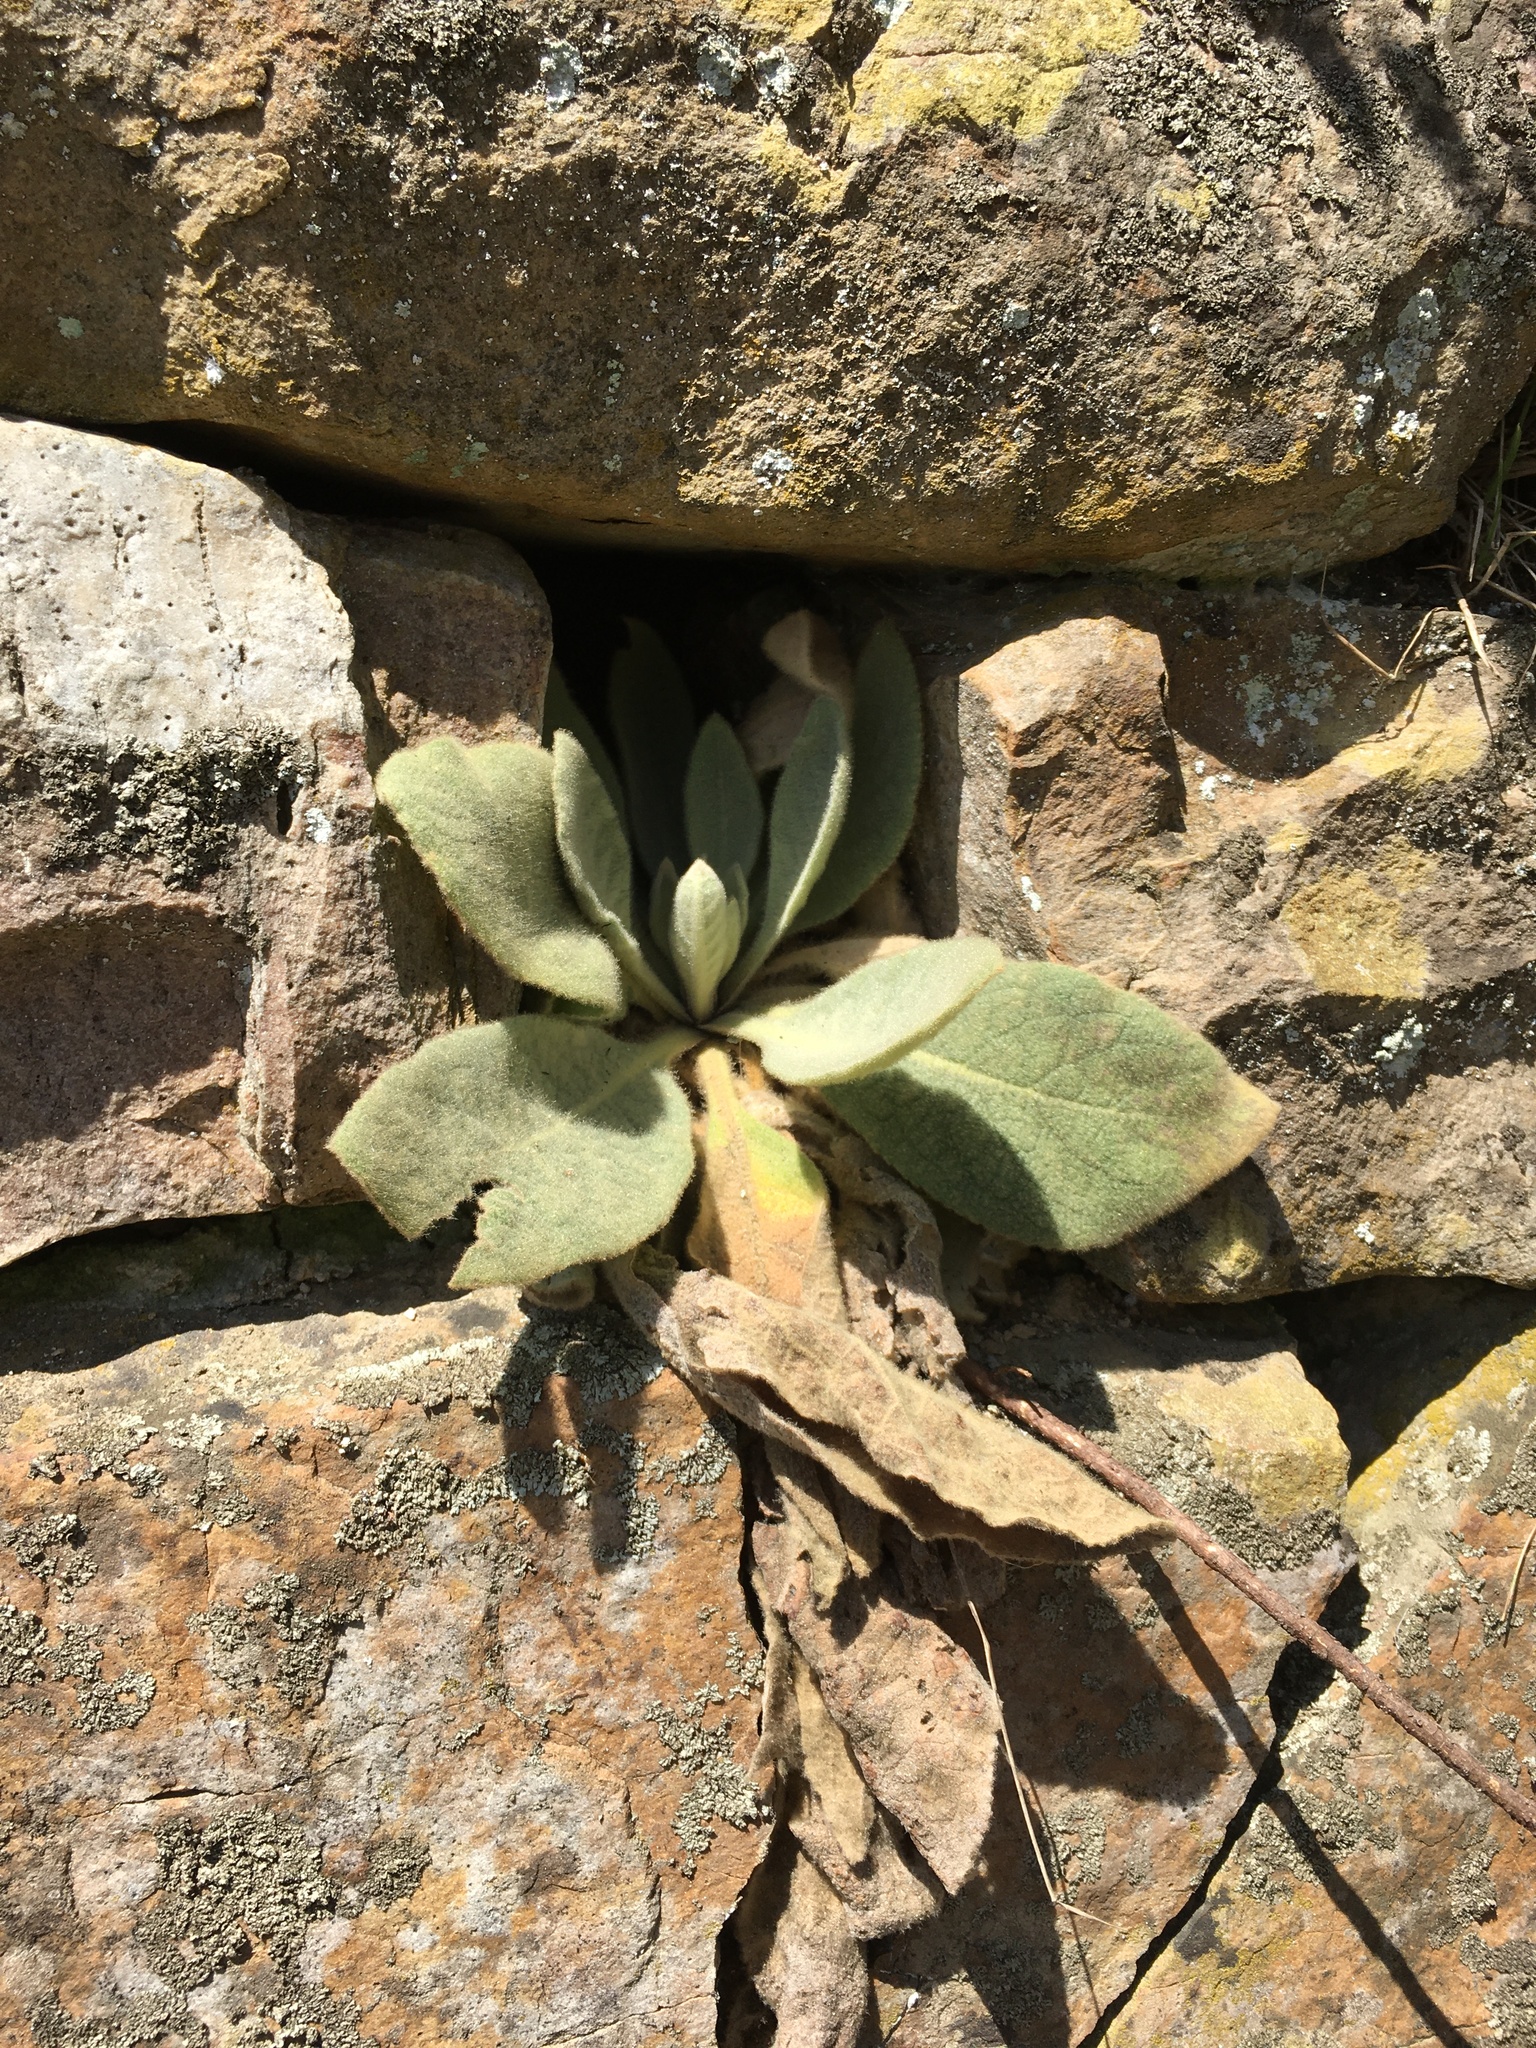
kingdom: Plantae
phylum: Tracheophyta
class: Magnoliopsida
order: Lamiales
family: Scrophulariaceae
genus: Verbascum
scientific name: Verbascum thapsus
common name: Common mullein
